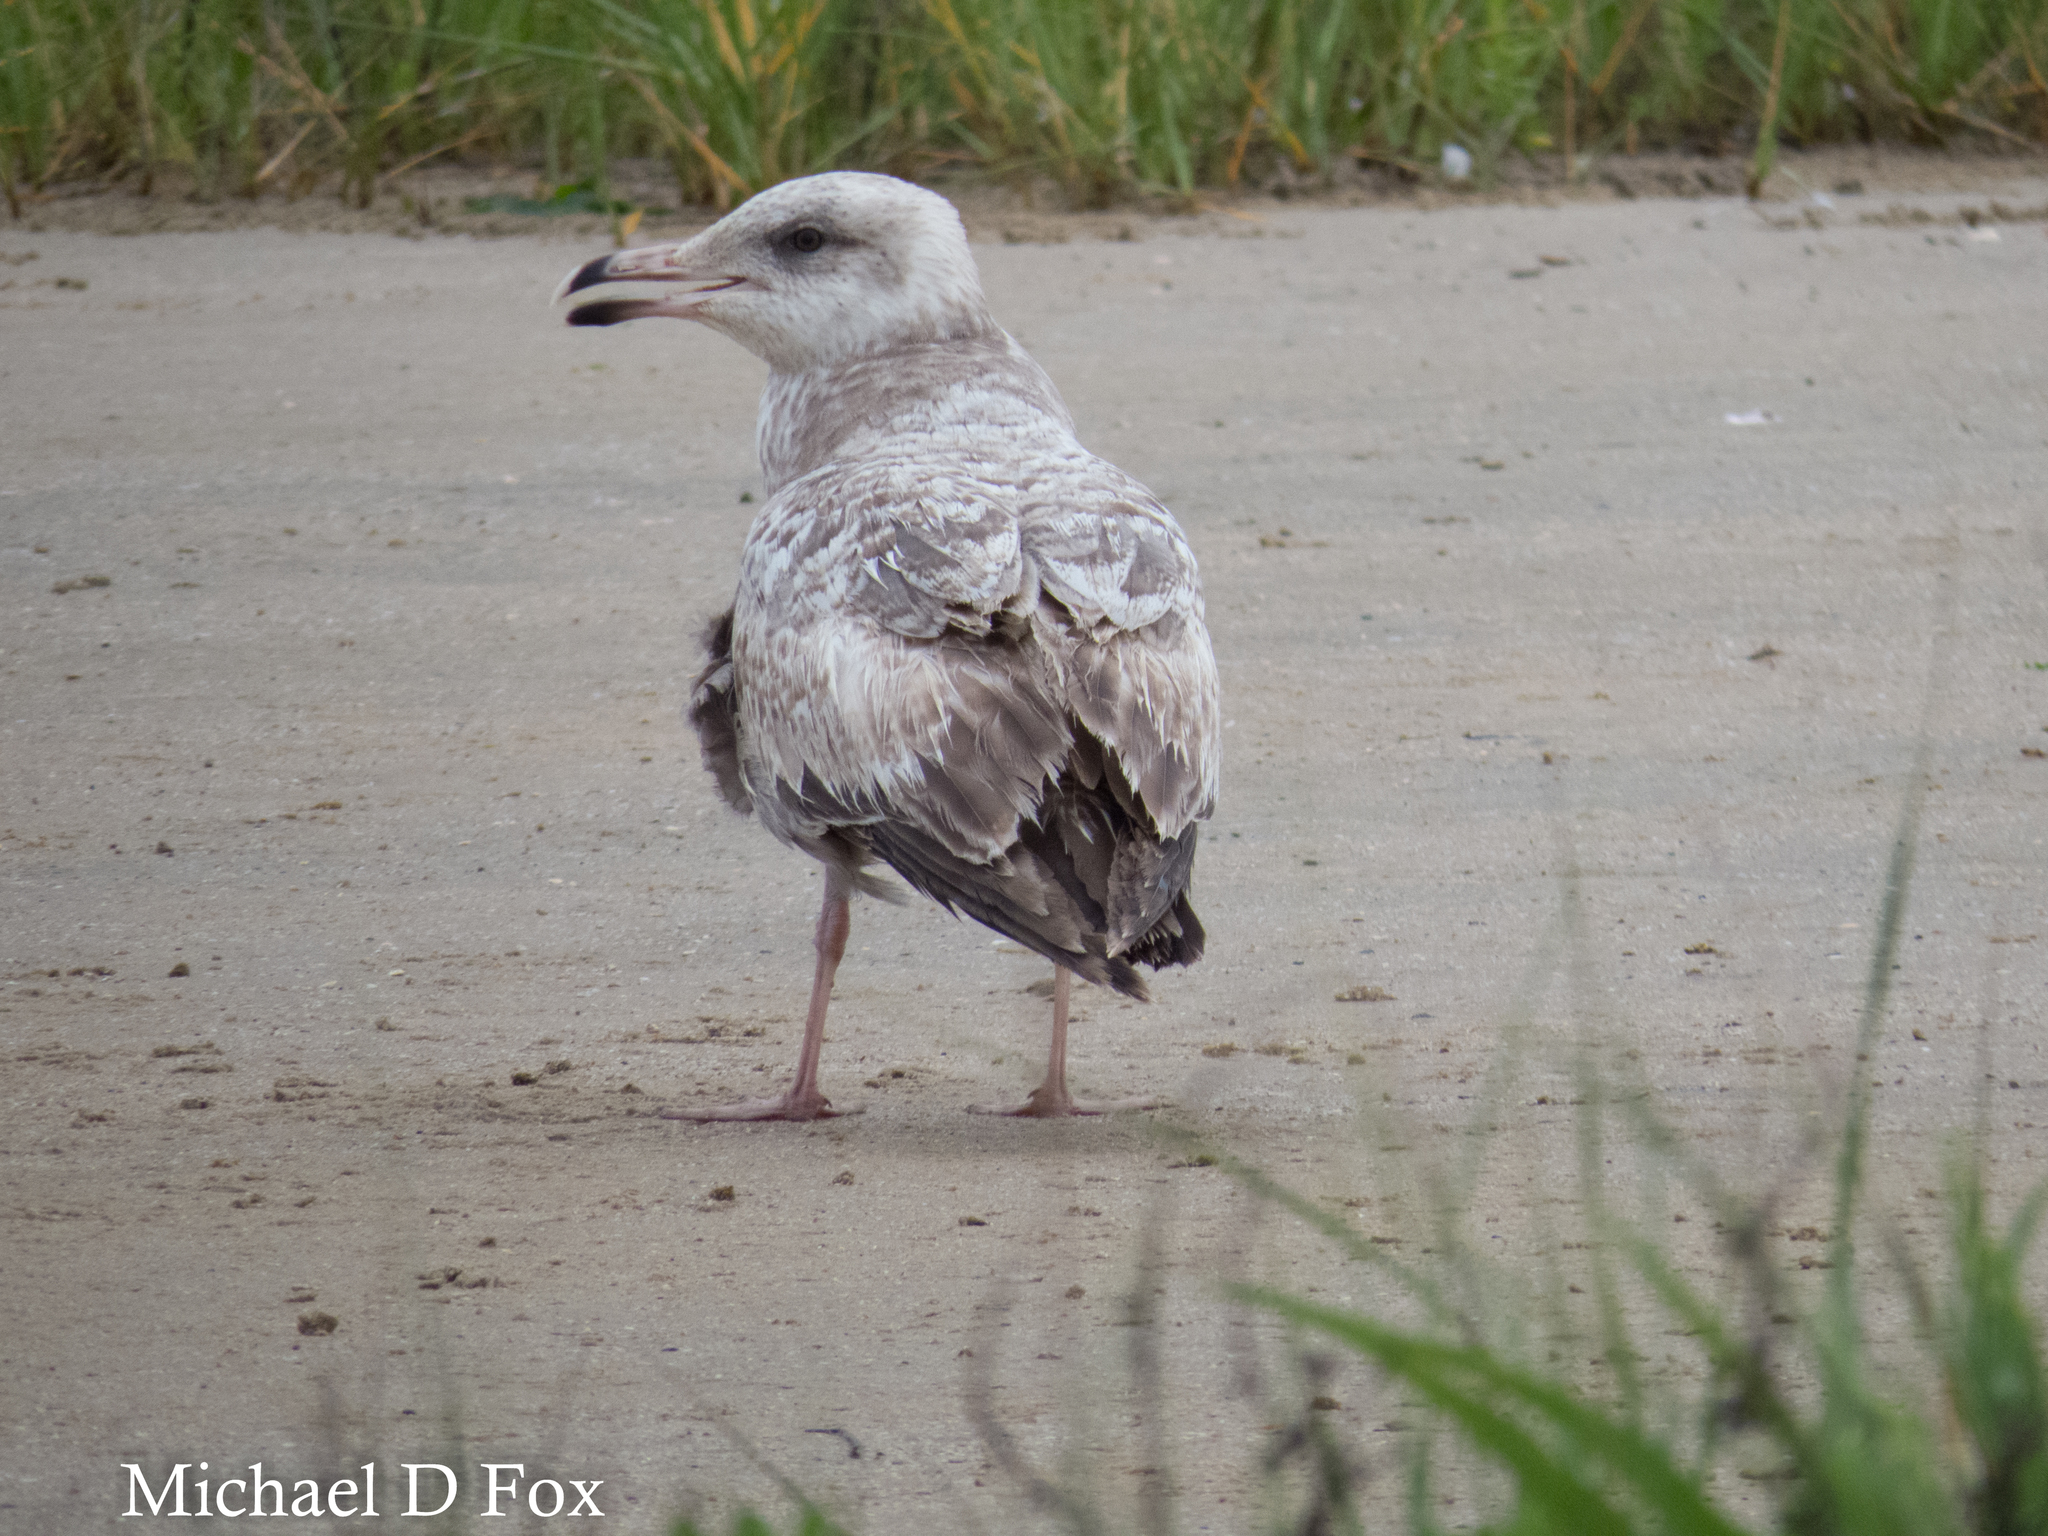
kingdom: Animalia
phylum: Chordata
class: Aves
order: Charadriiformes
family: Laridae
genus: Larus
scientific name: Larus argentatus
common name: Herring gull
